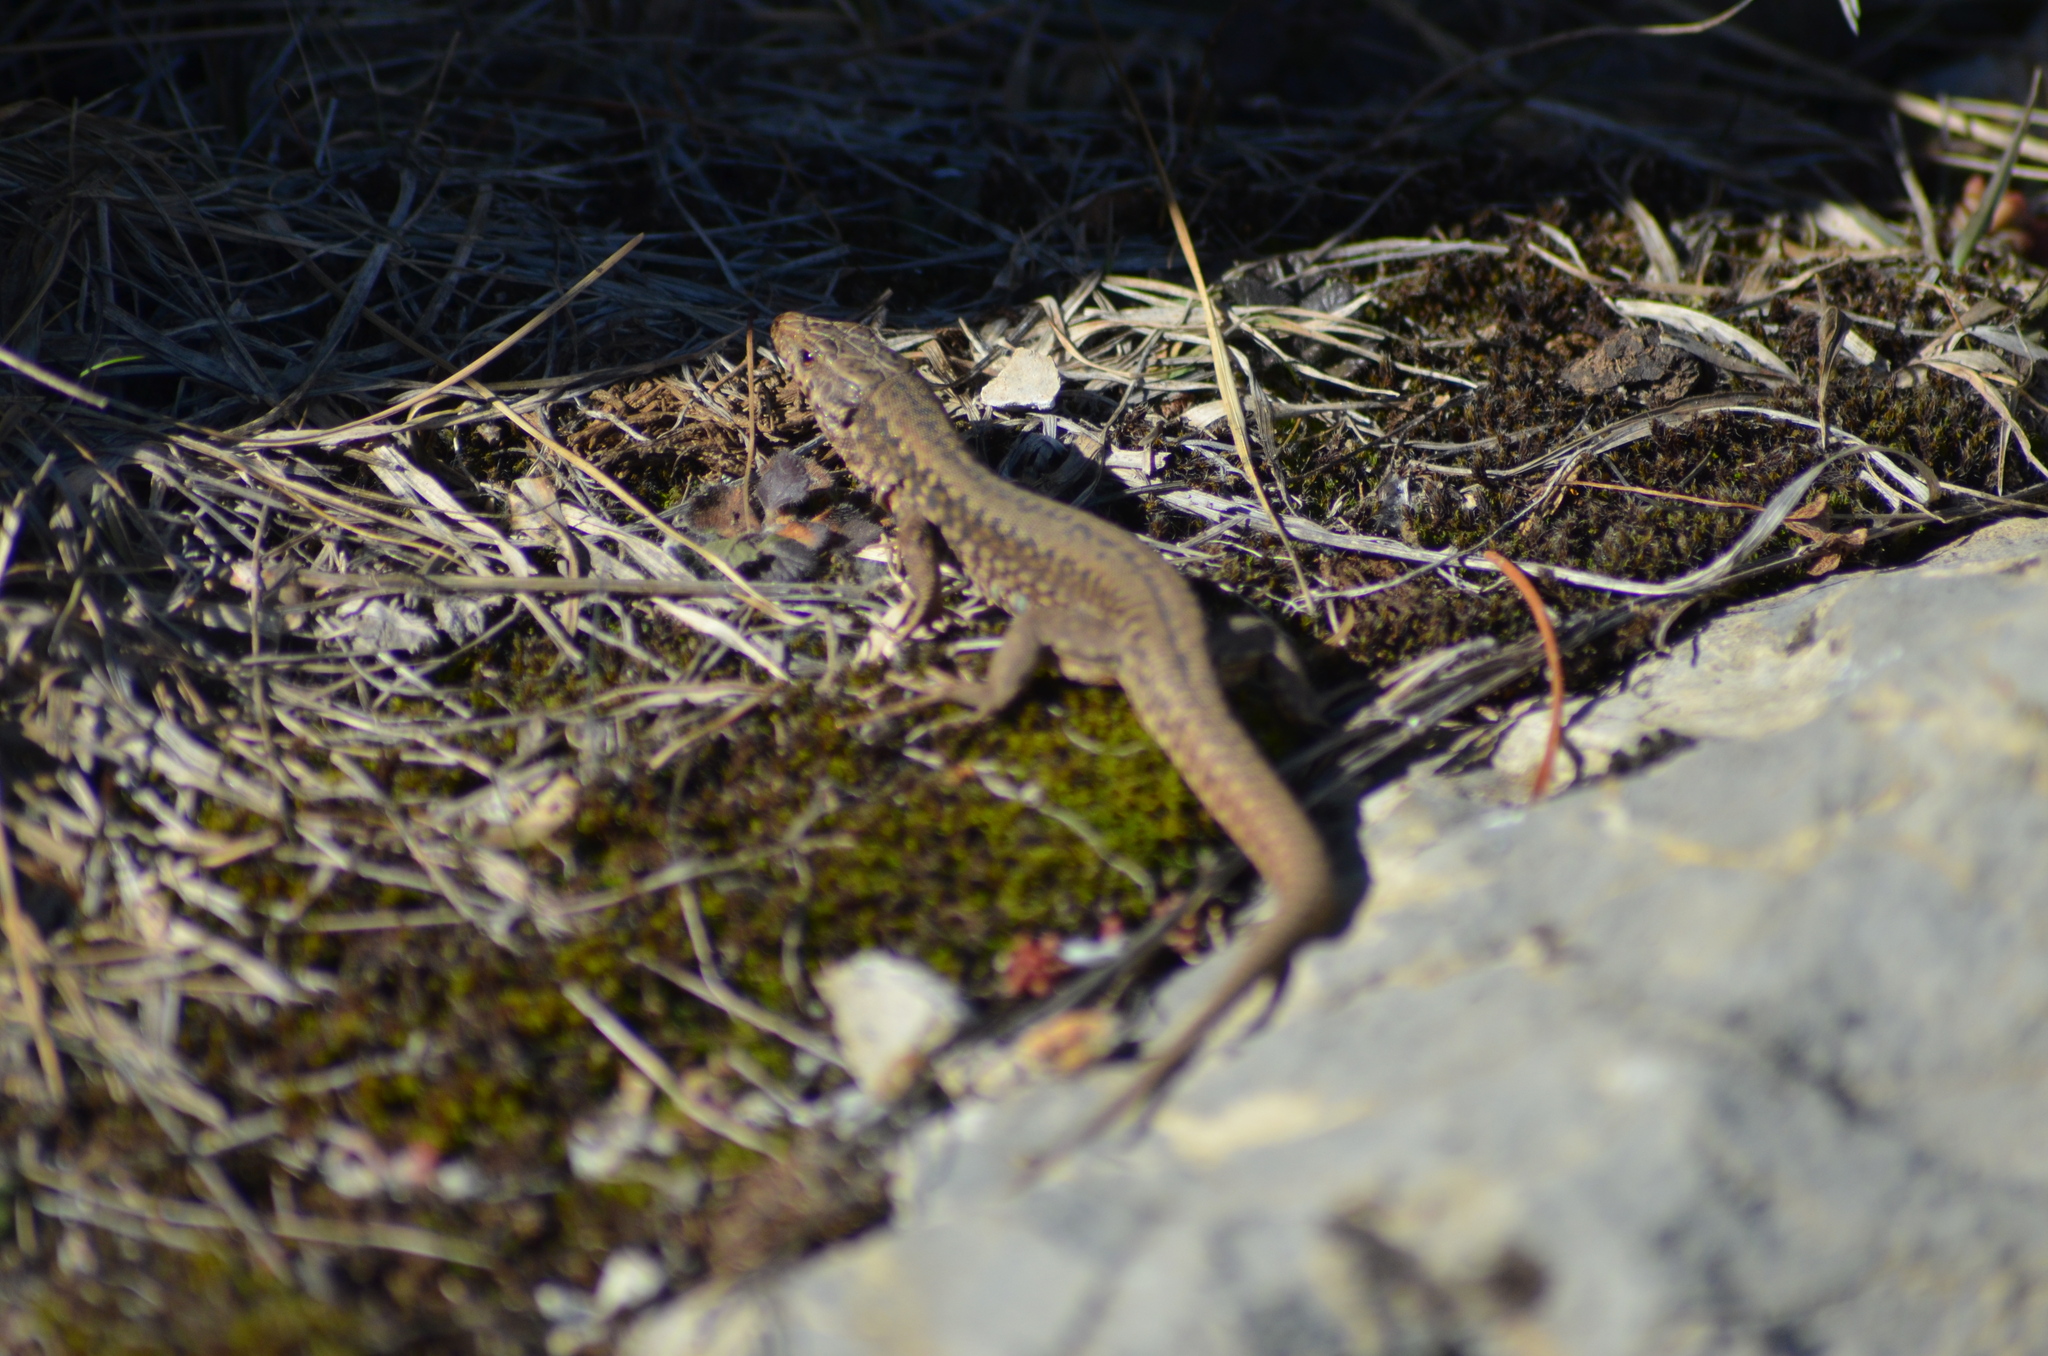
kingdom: Animalia
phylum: Chordata
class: Squamata
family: Lacertidae
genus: Podarcis
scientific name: Podarcis muralis
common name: Common wall lizard
